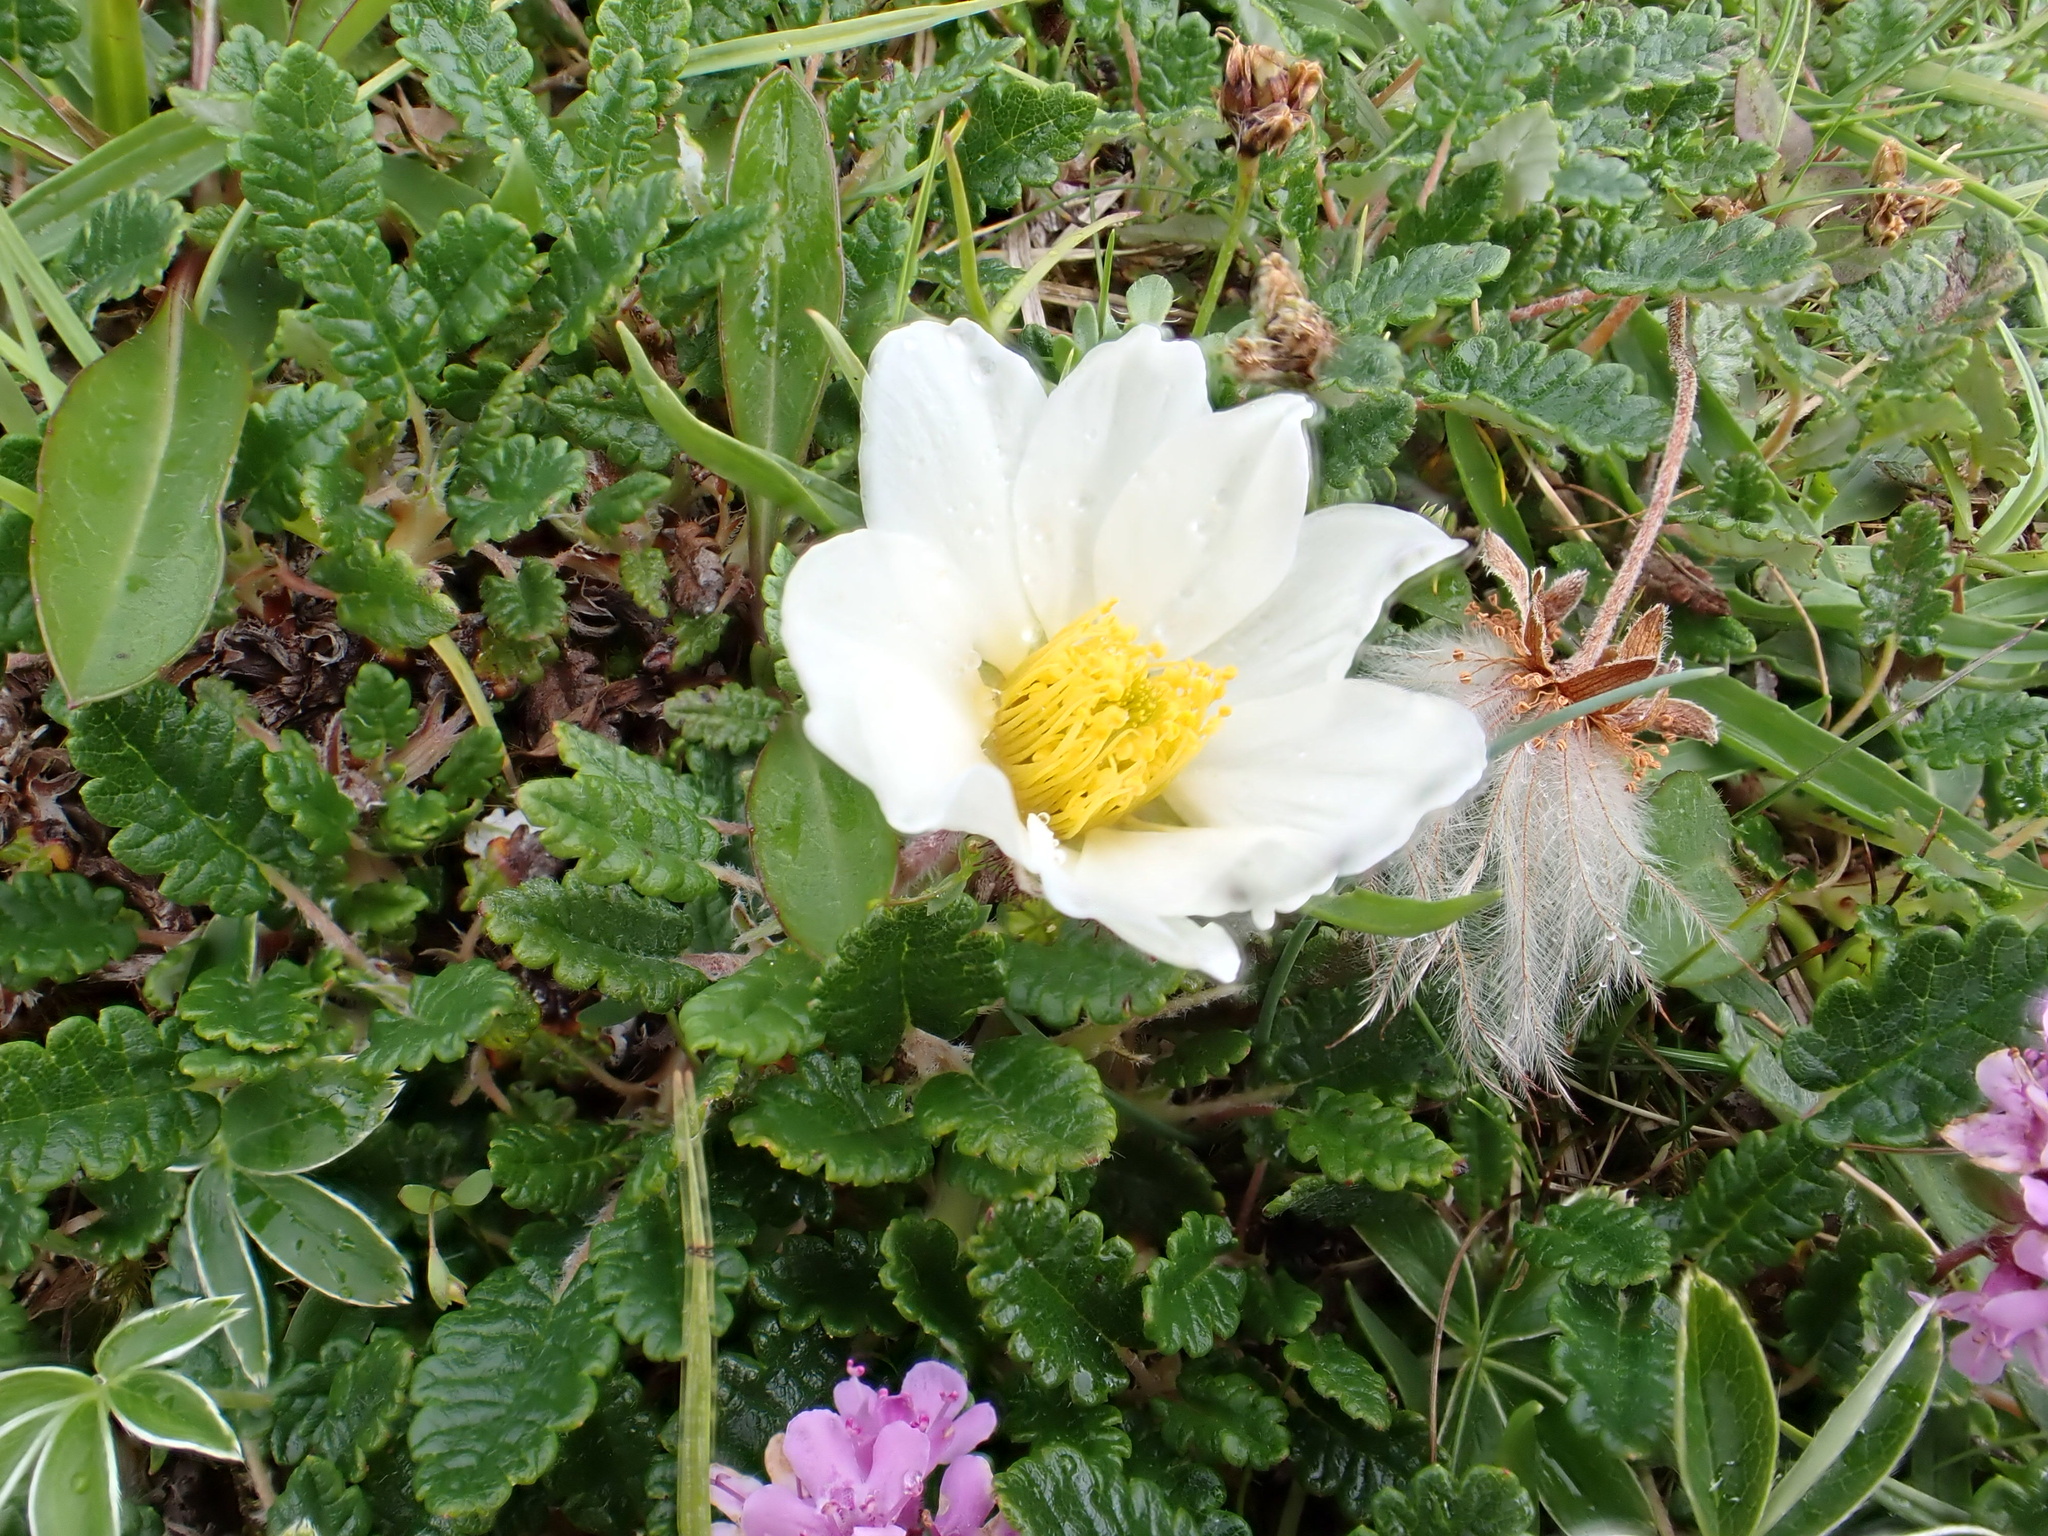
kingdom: Plantae
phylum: Tracheophyta
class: Magnoliopsida
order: Rosales
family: Rosaceae
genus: Dryas
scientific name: Dryas octopetala
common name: Eight-petal mountain-avens
